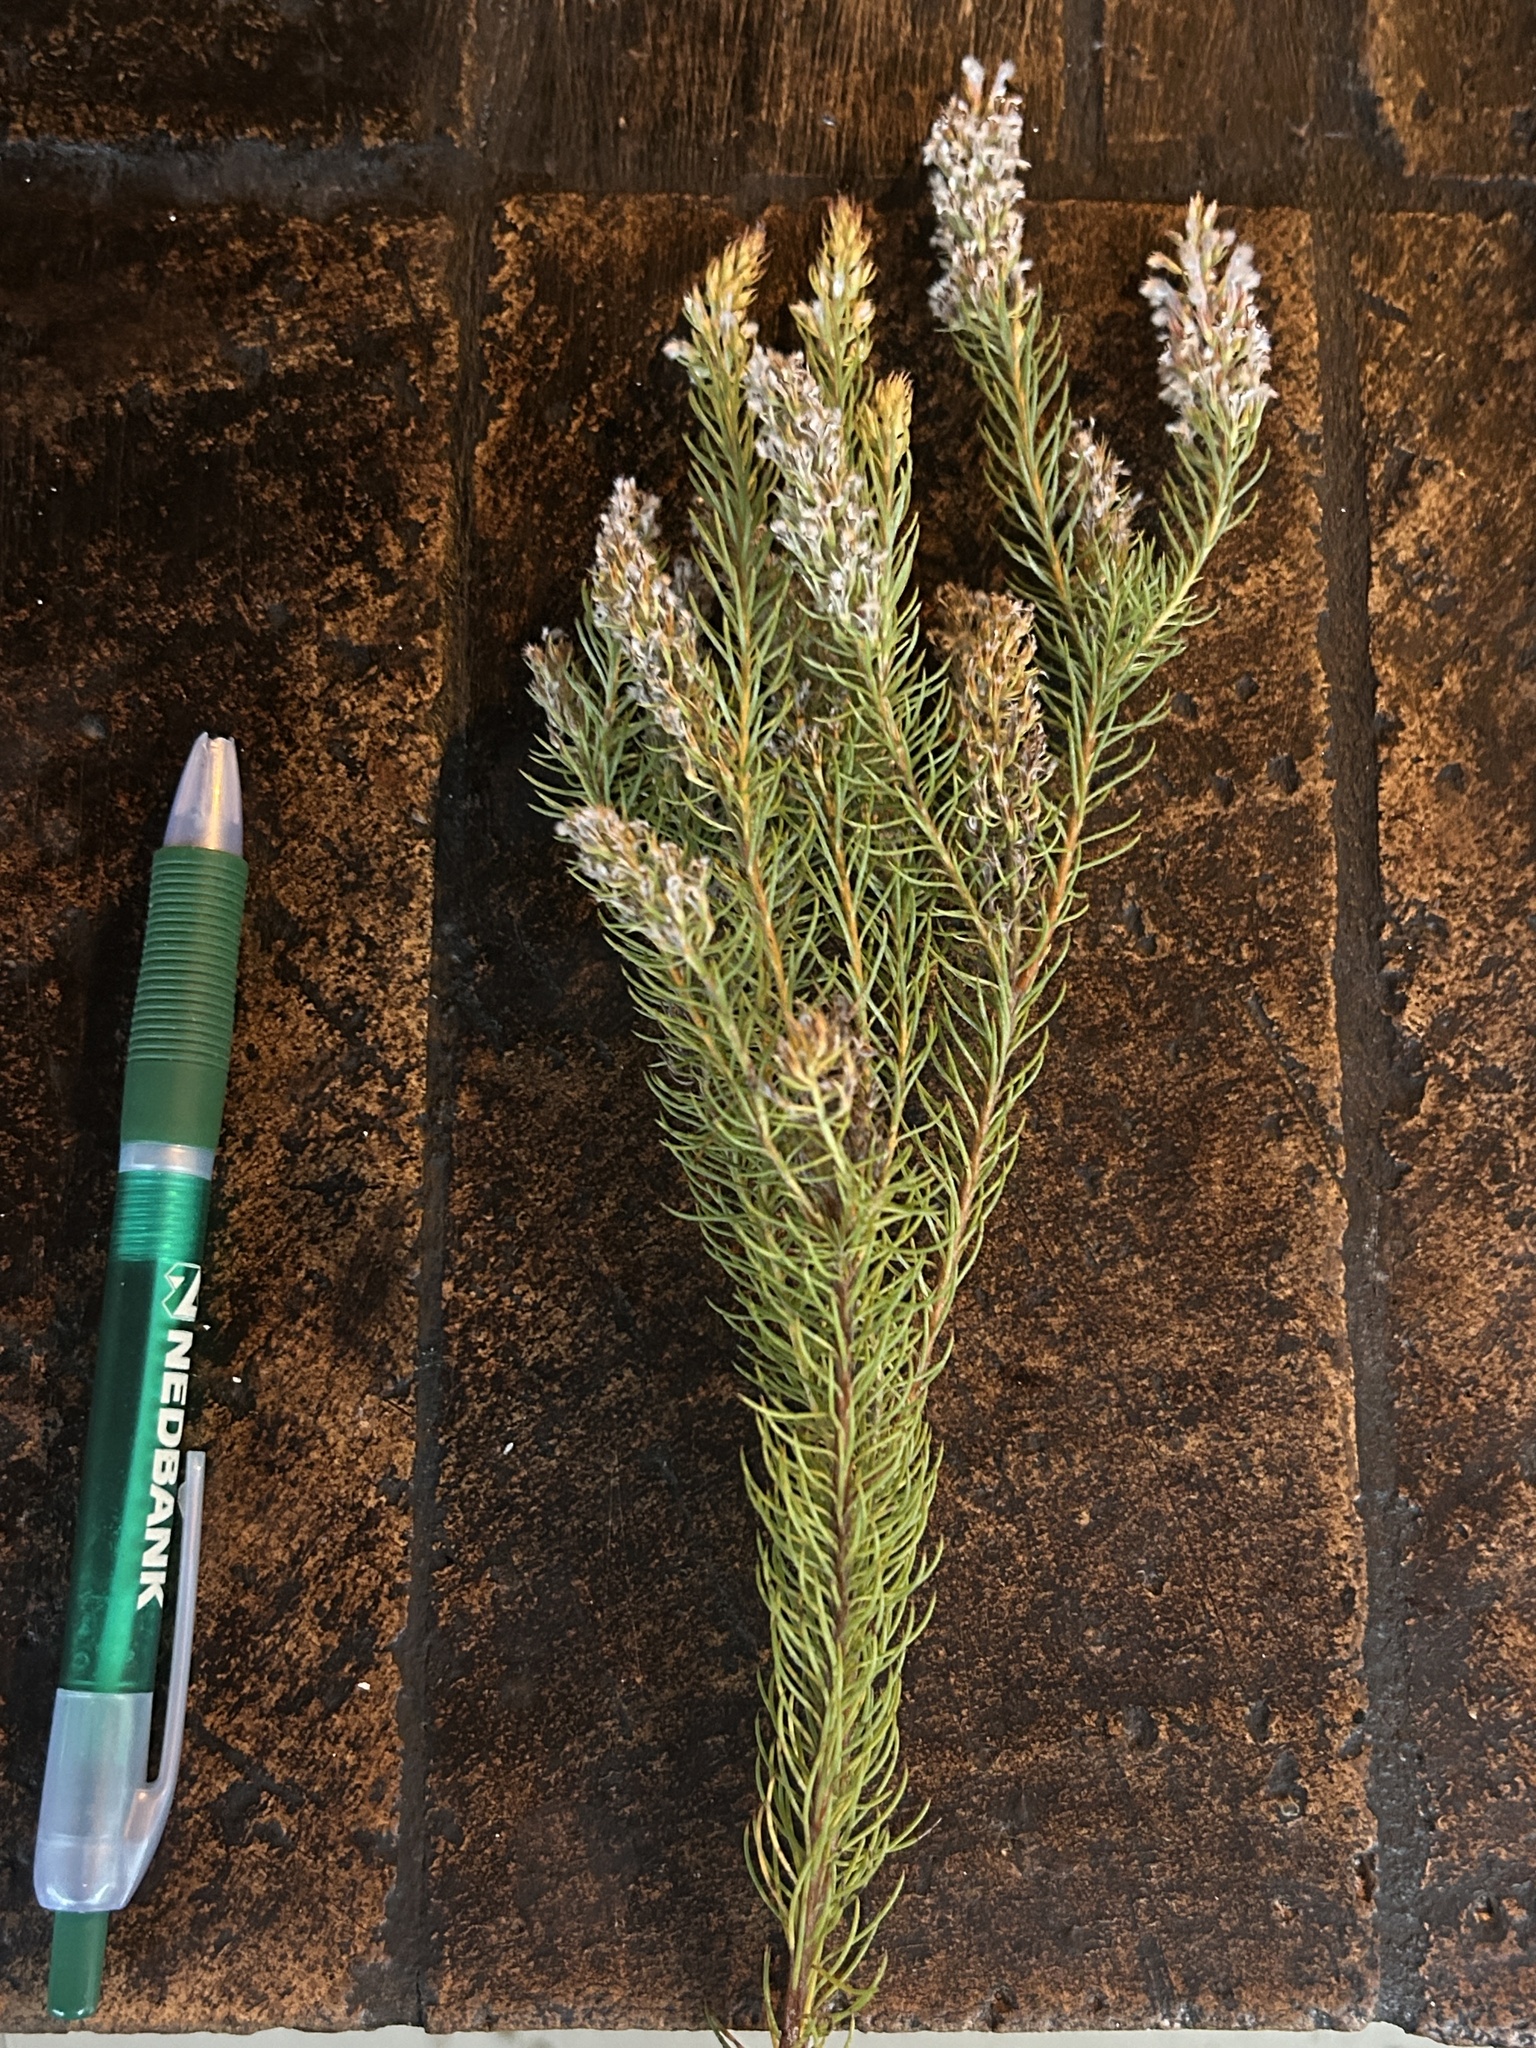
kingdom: Plantae
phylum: Tracheophyta
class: Magnoliopsida
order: Proteales
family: Proteaceae
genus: Spatalla
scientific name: Spatalla parilis
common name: Spike spoon
